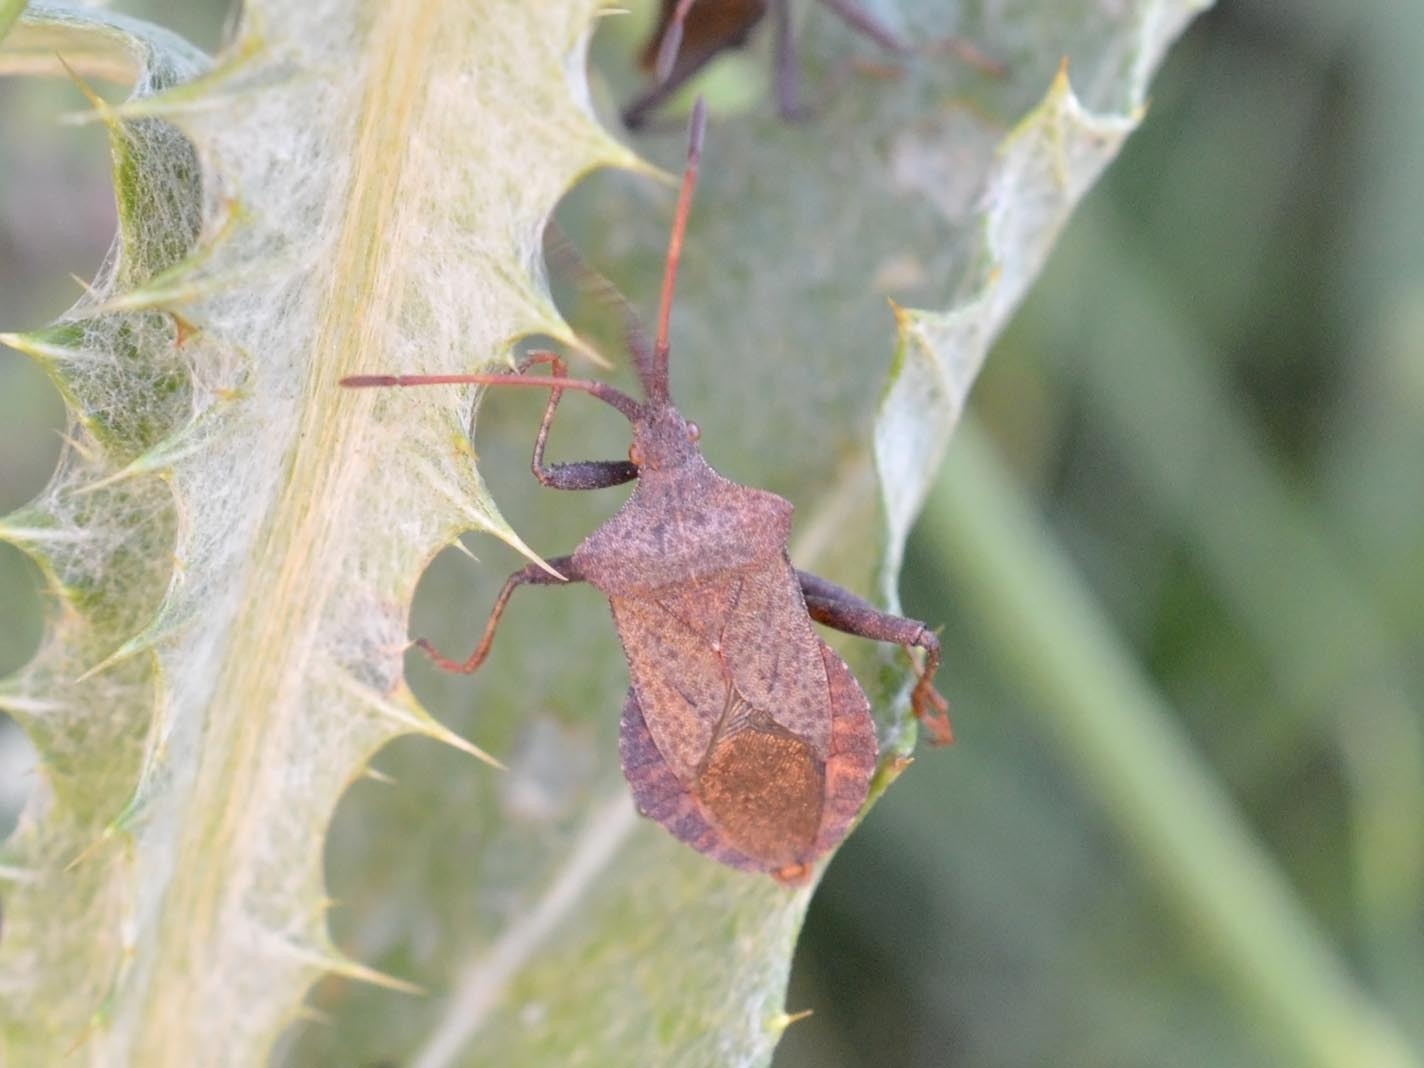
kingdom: Animalia
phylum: Arthropoda
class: Insecta
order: Hemiptera
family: Coreidae
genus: Coreus
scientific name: Coreus marginatus
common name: Dock bug
